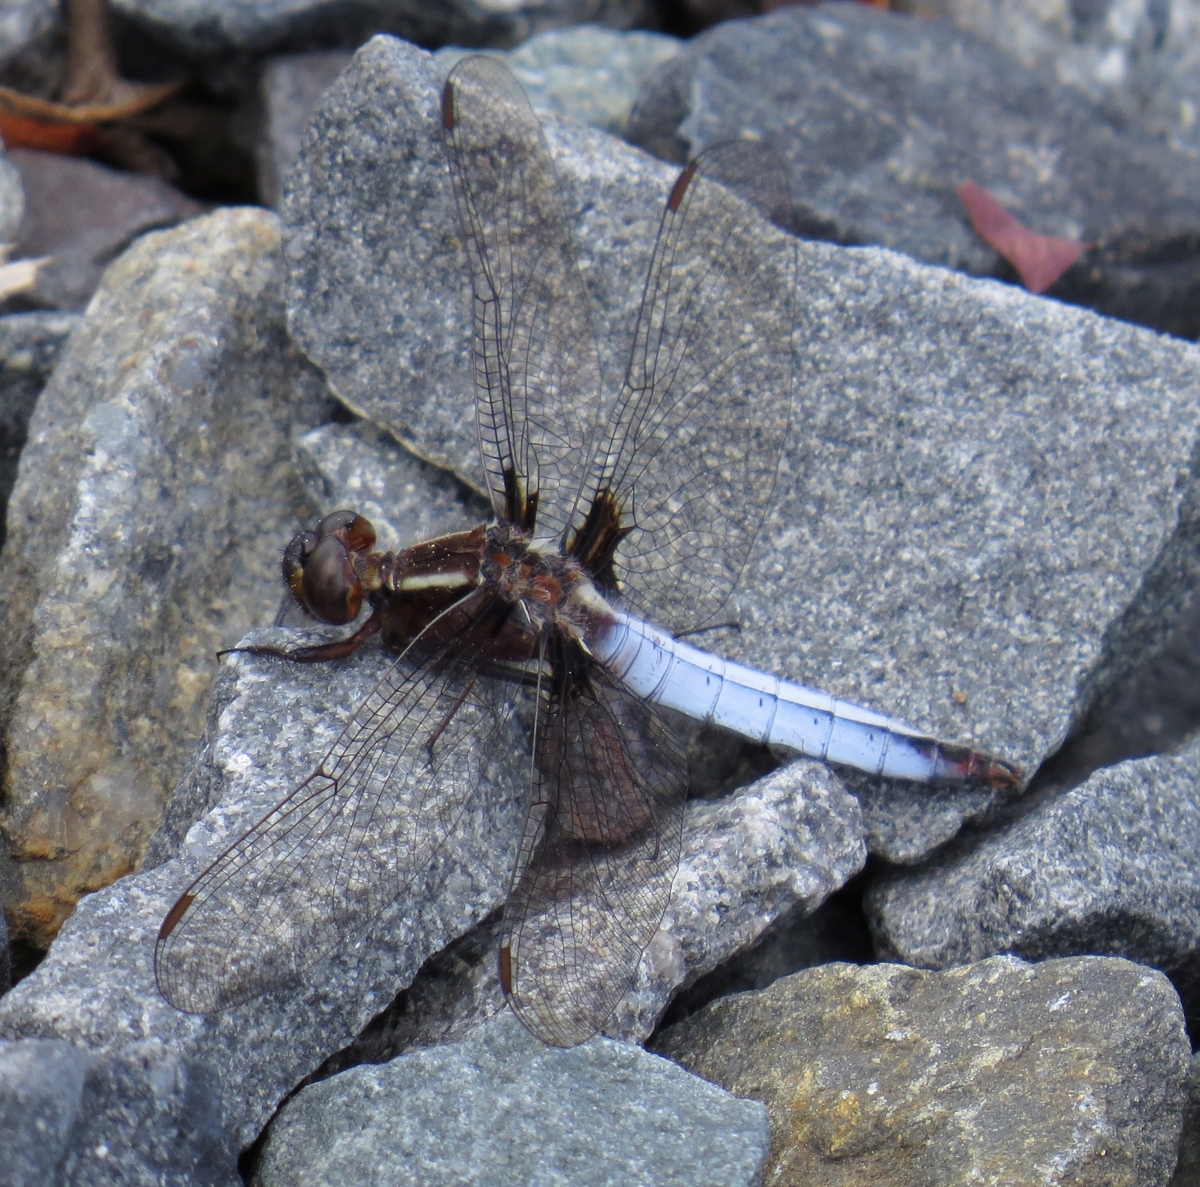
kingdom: Animalia
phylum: Arthropoda
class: Insecta
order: Odonata
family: Libellulidae
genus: Ladona
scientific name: Ladona exusta
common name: Libellule embrasée
